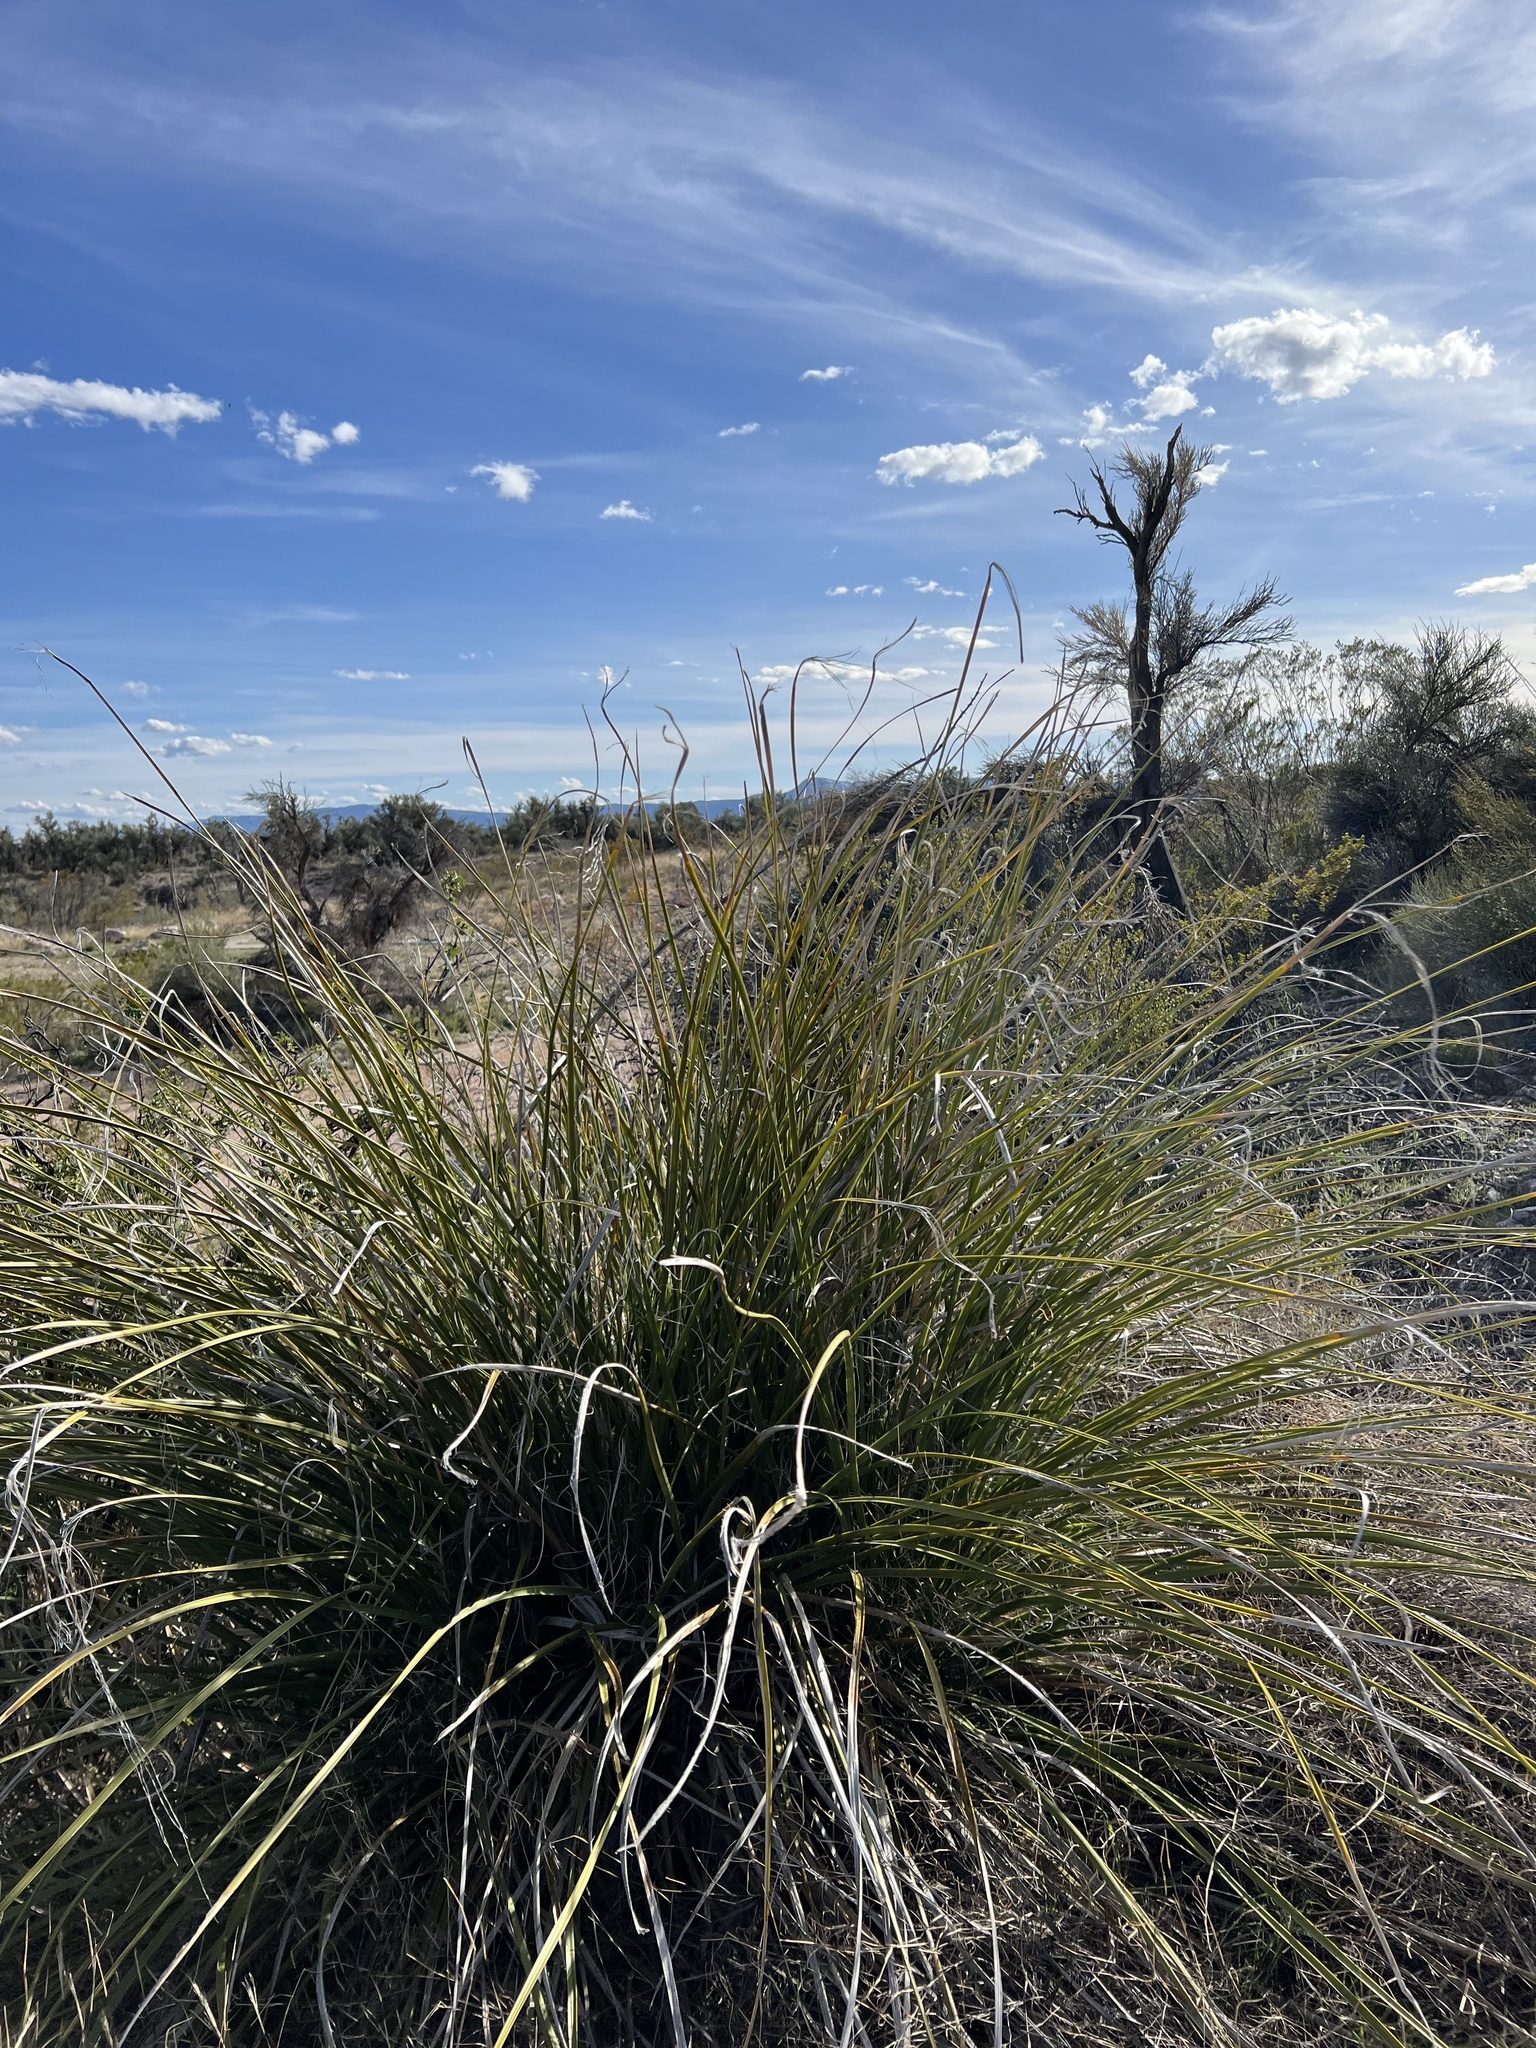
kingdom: Plantae
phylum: Tracheophyta
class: Liliopsida
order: Asparagales
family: Asparagaceae
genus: Nolina
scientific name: Nolina microcarpa
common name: Bear-grass
